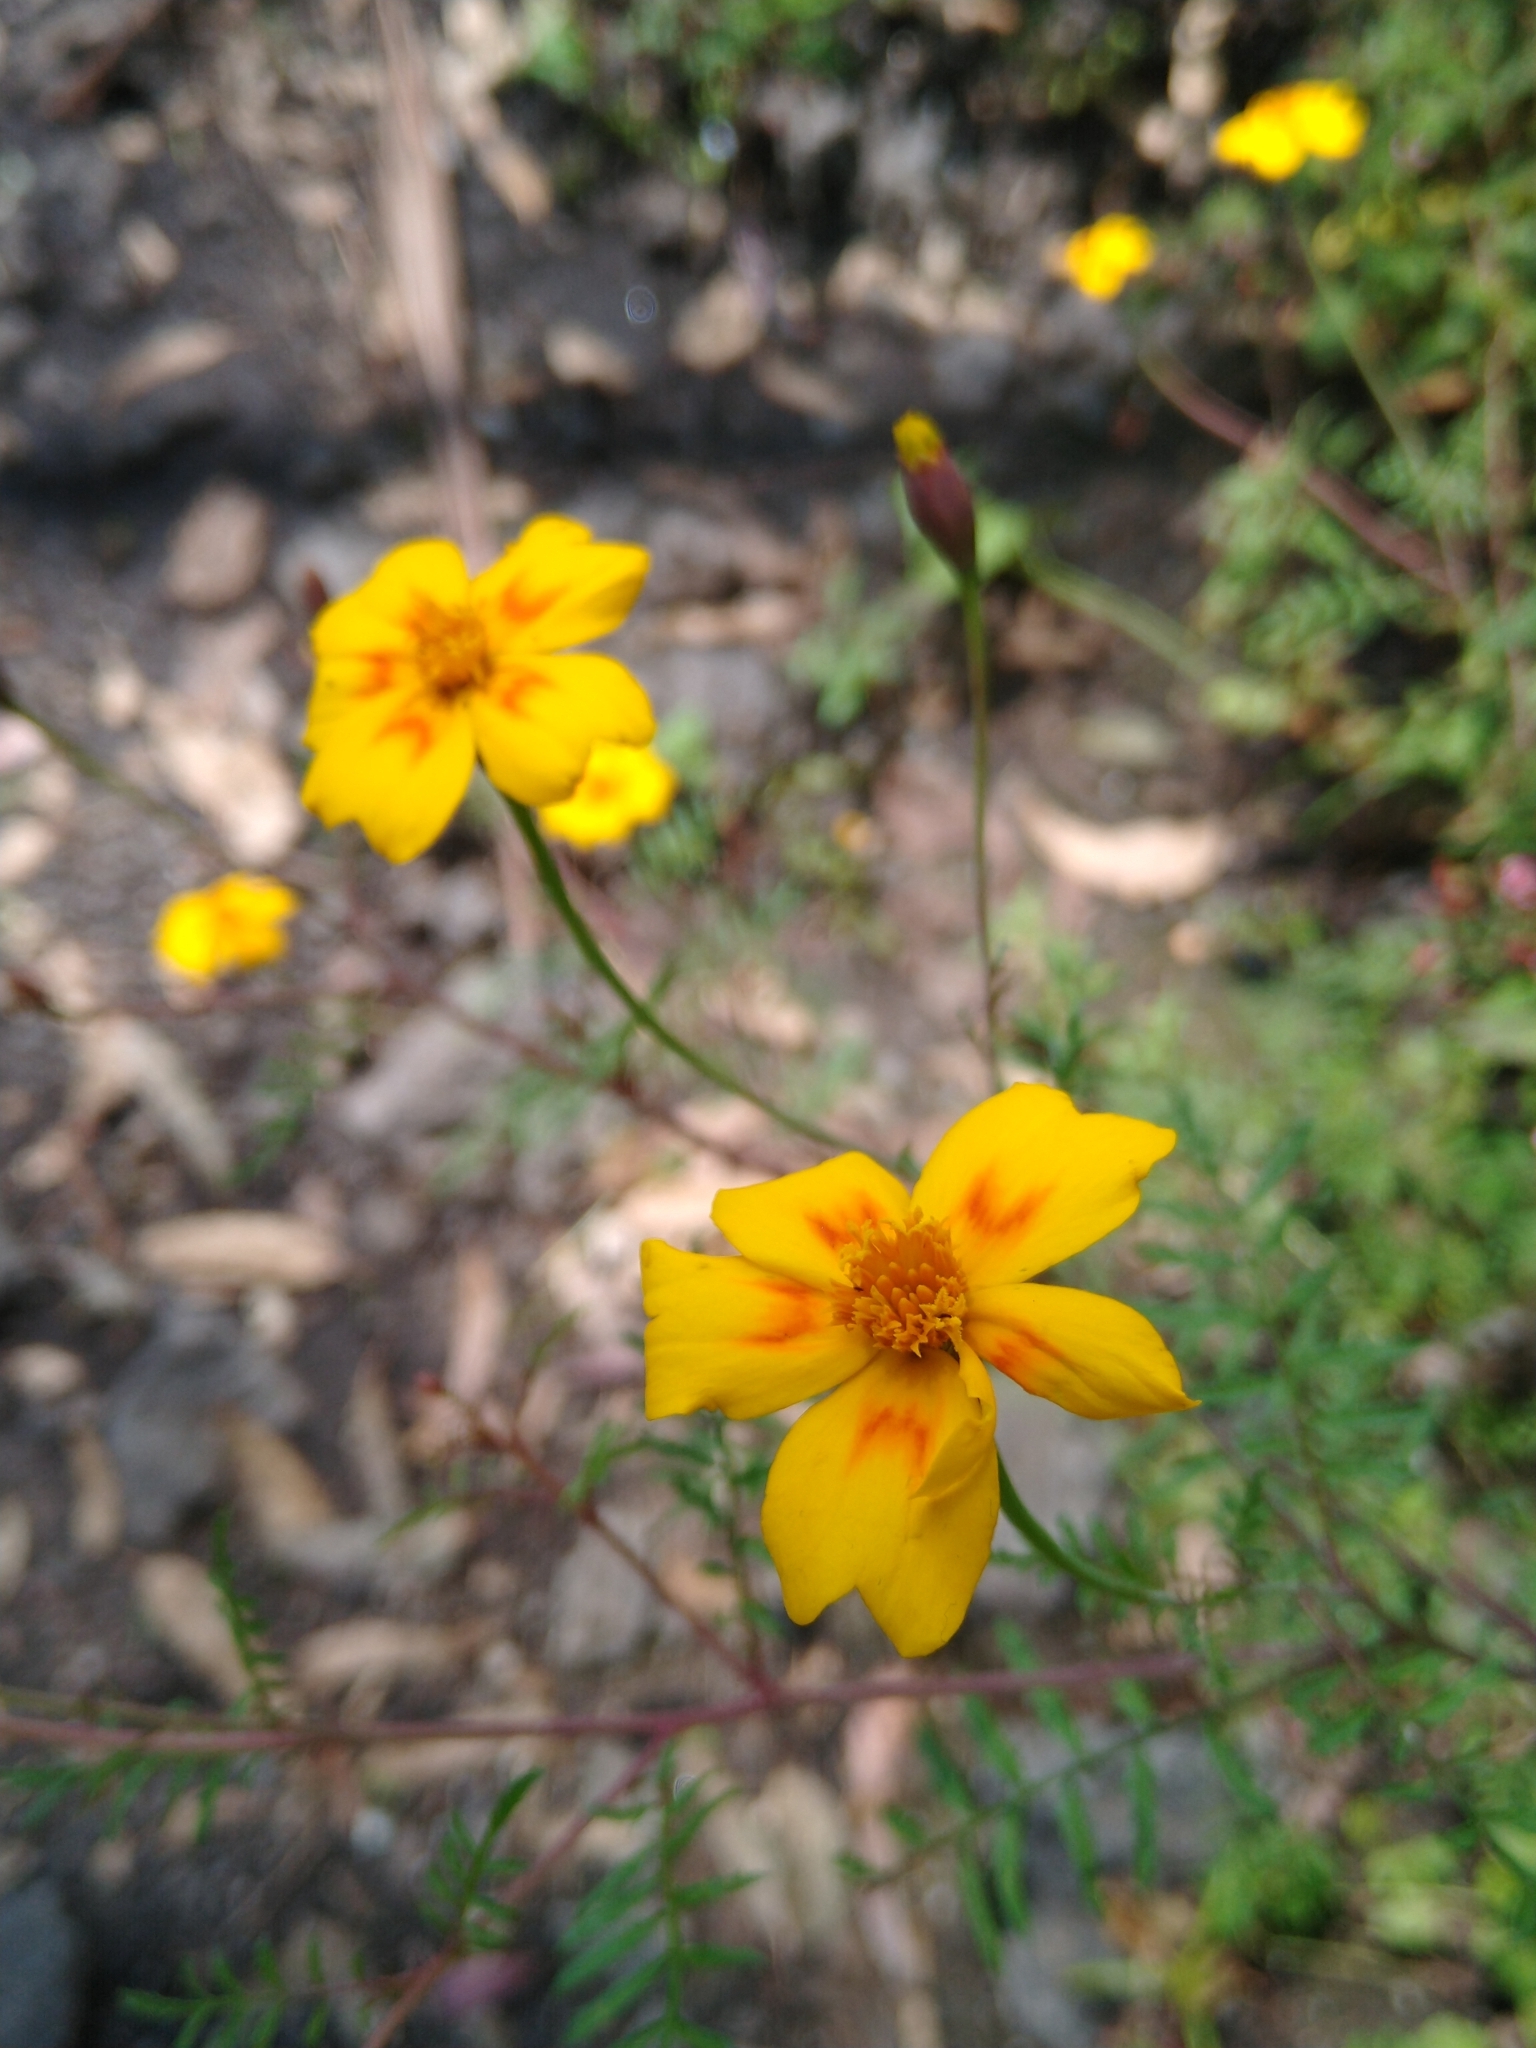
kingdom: Plantae
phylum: Tracheophyta
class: Magnoliopsida
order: Asterales
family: Asteraceae
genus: Tagetes
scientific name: Tagetes lunulata
